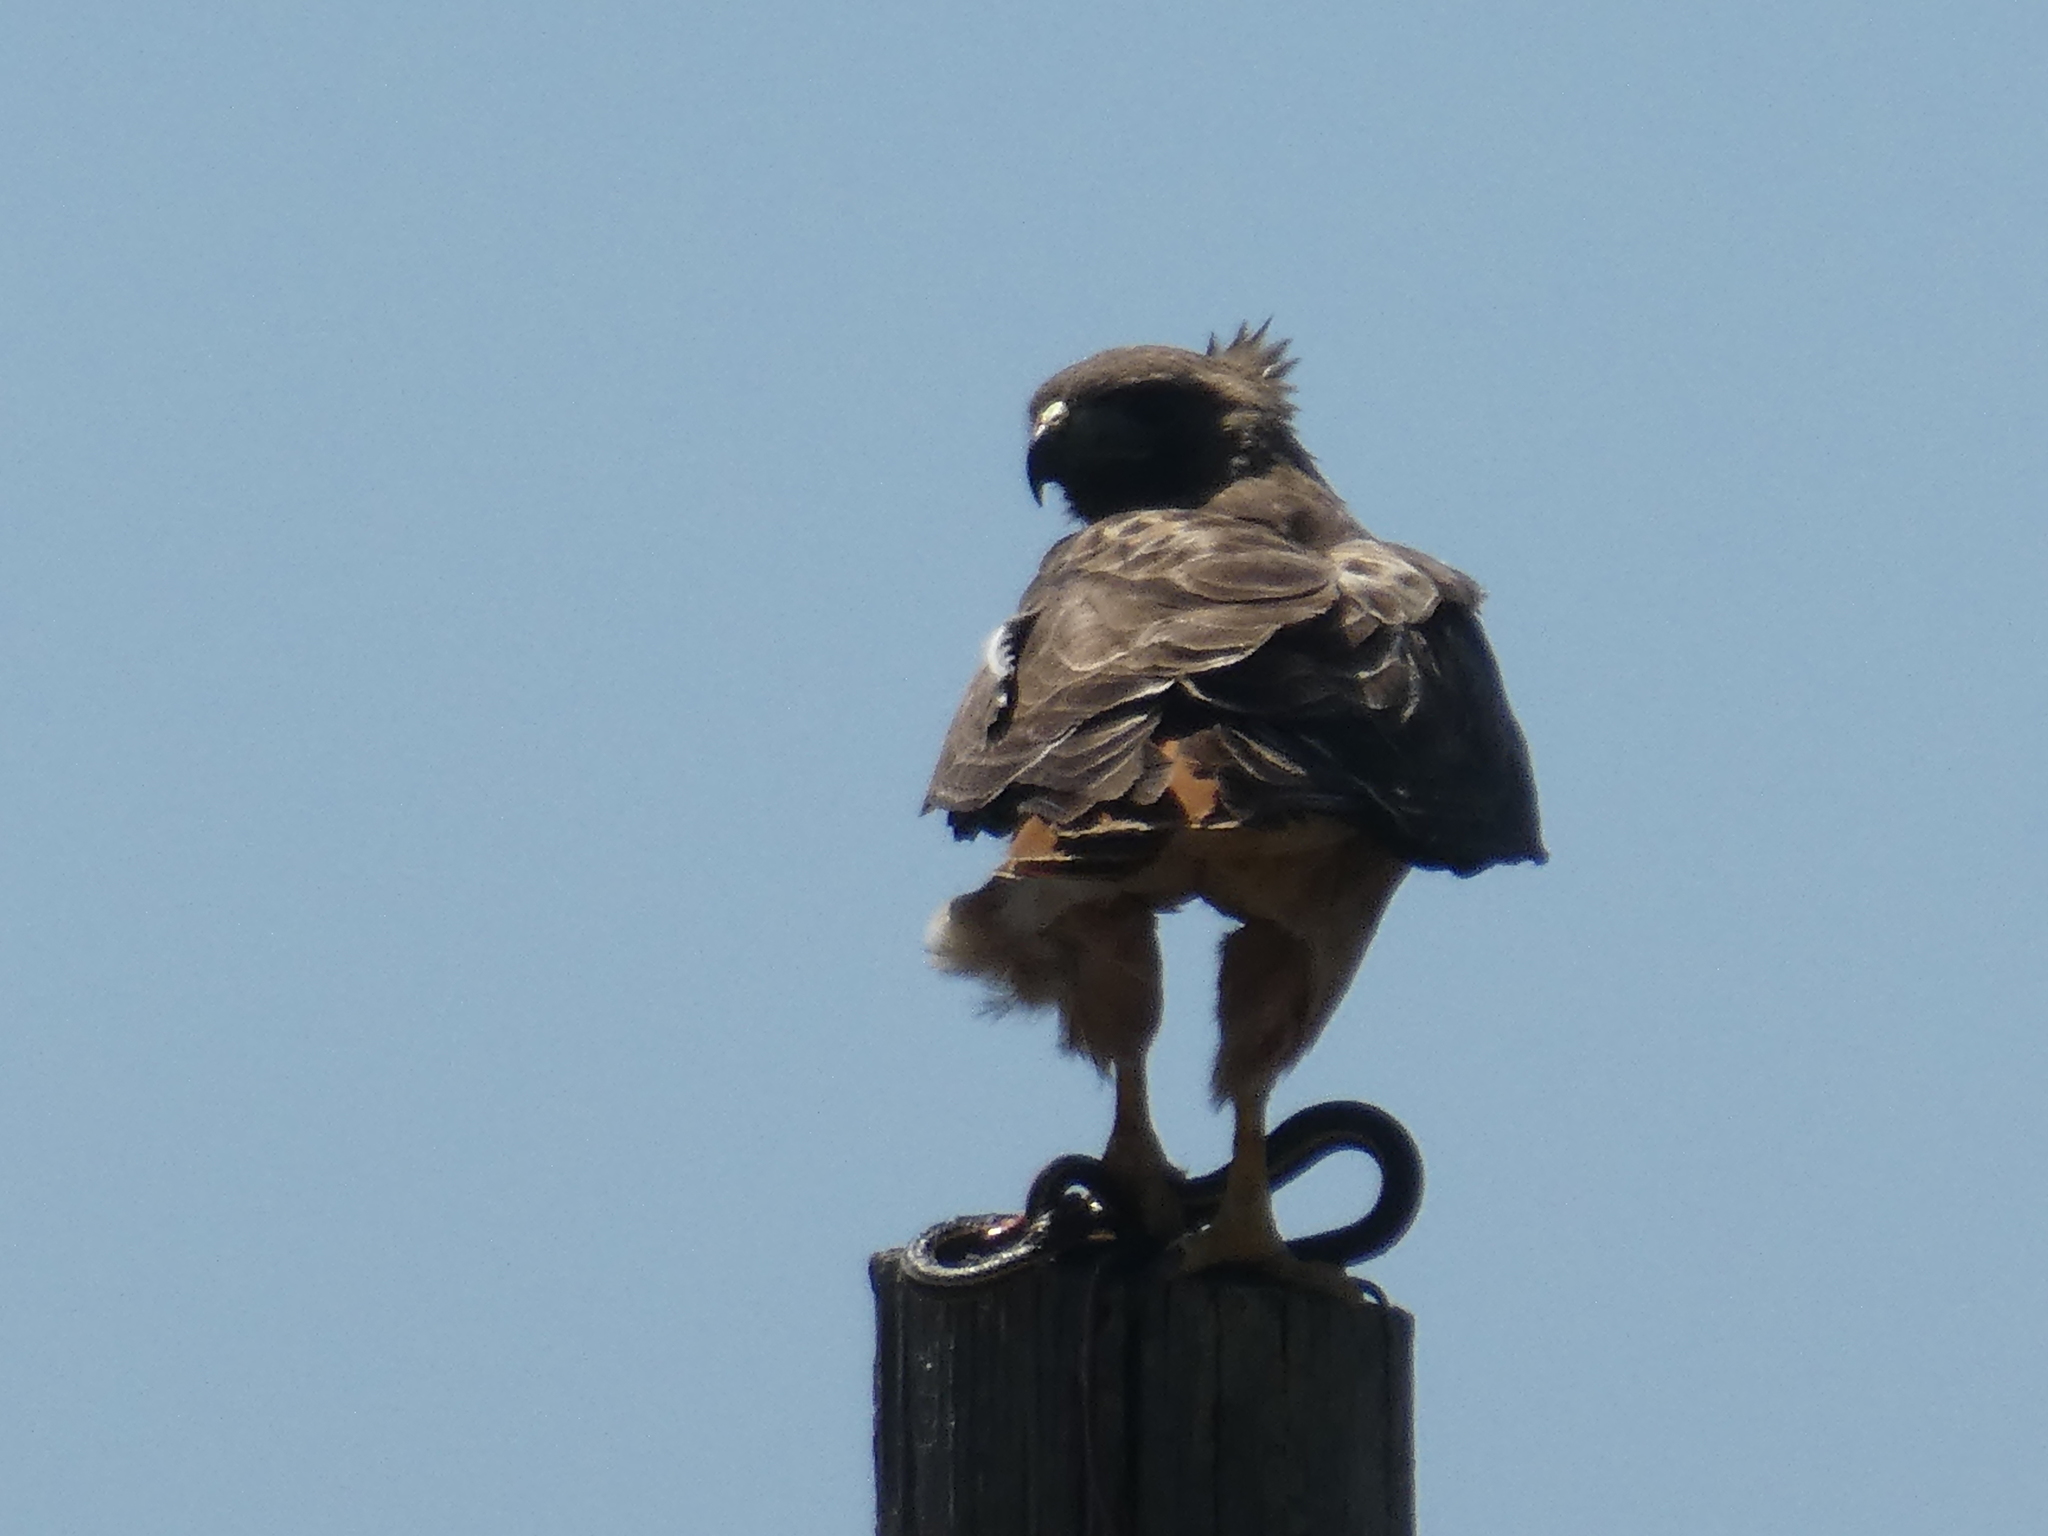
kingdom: Animalia
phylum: Chordata
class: Aves
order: Accipitriformes
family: Accipitridae
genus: Buteo
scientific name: Buteo jamaicensis
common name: Red-tailed hawk
